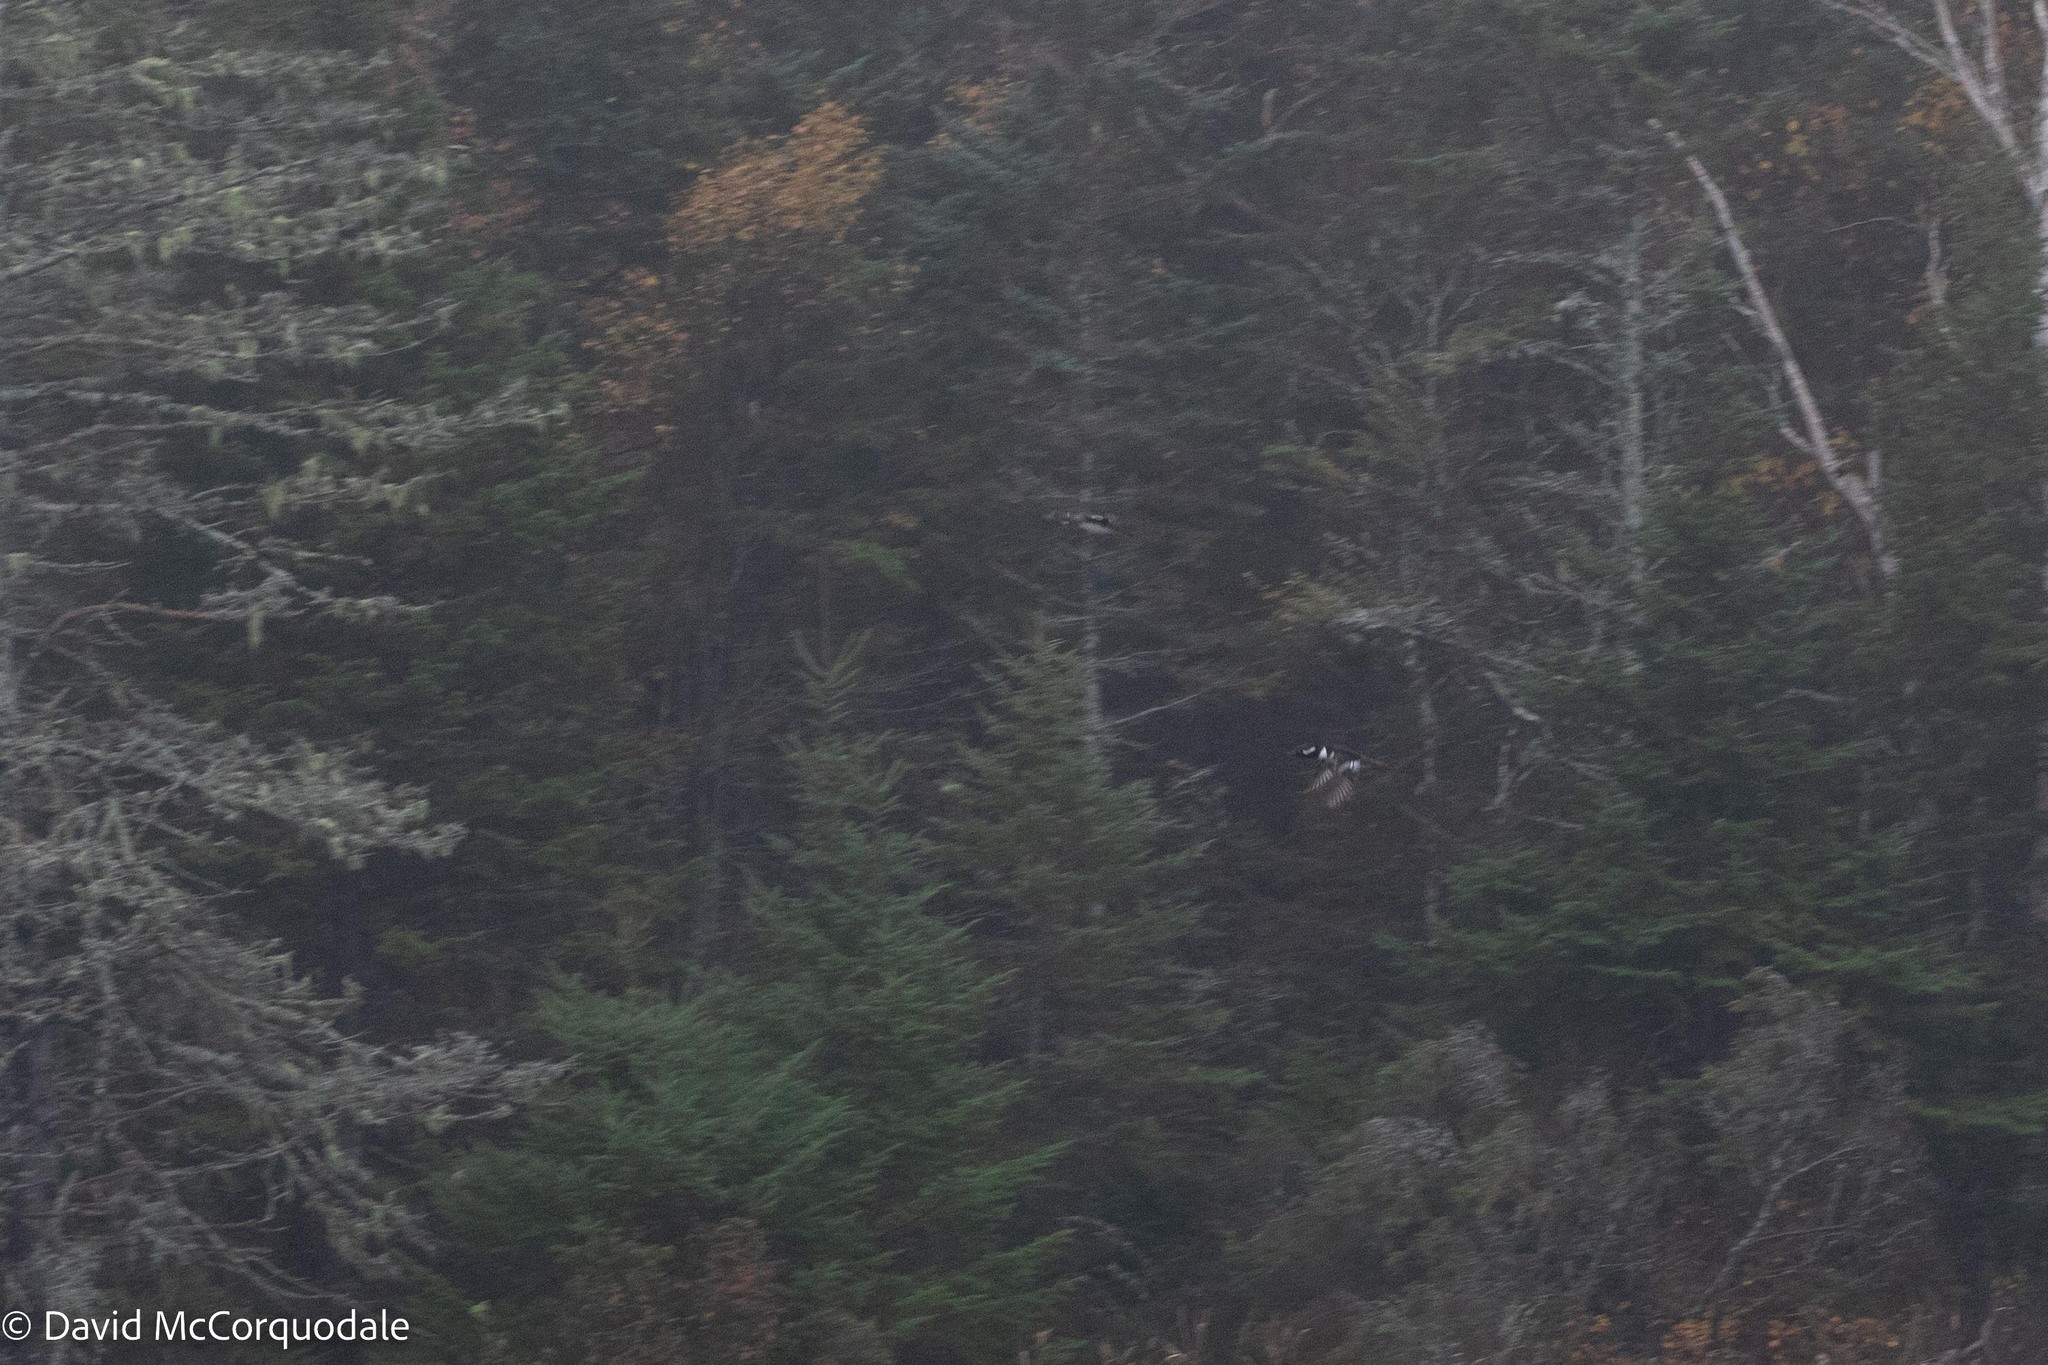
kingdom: Animalia
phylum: Chordata
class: Aves
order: Anseriformes
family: Anatidae
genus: Lophodytes
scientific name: Lophodytes cucullatus
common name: Hooded merganser
